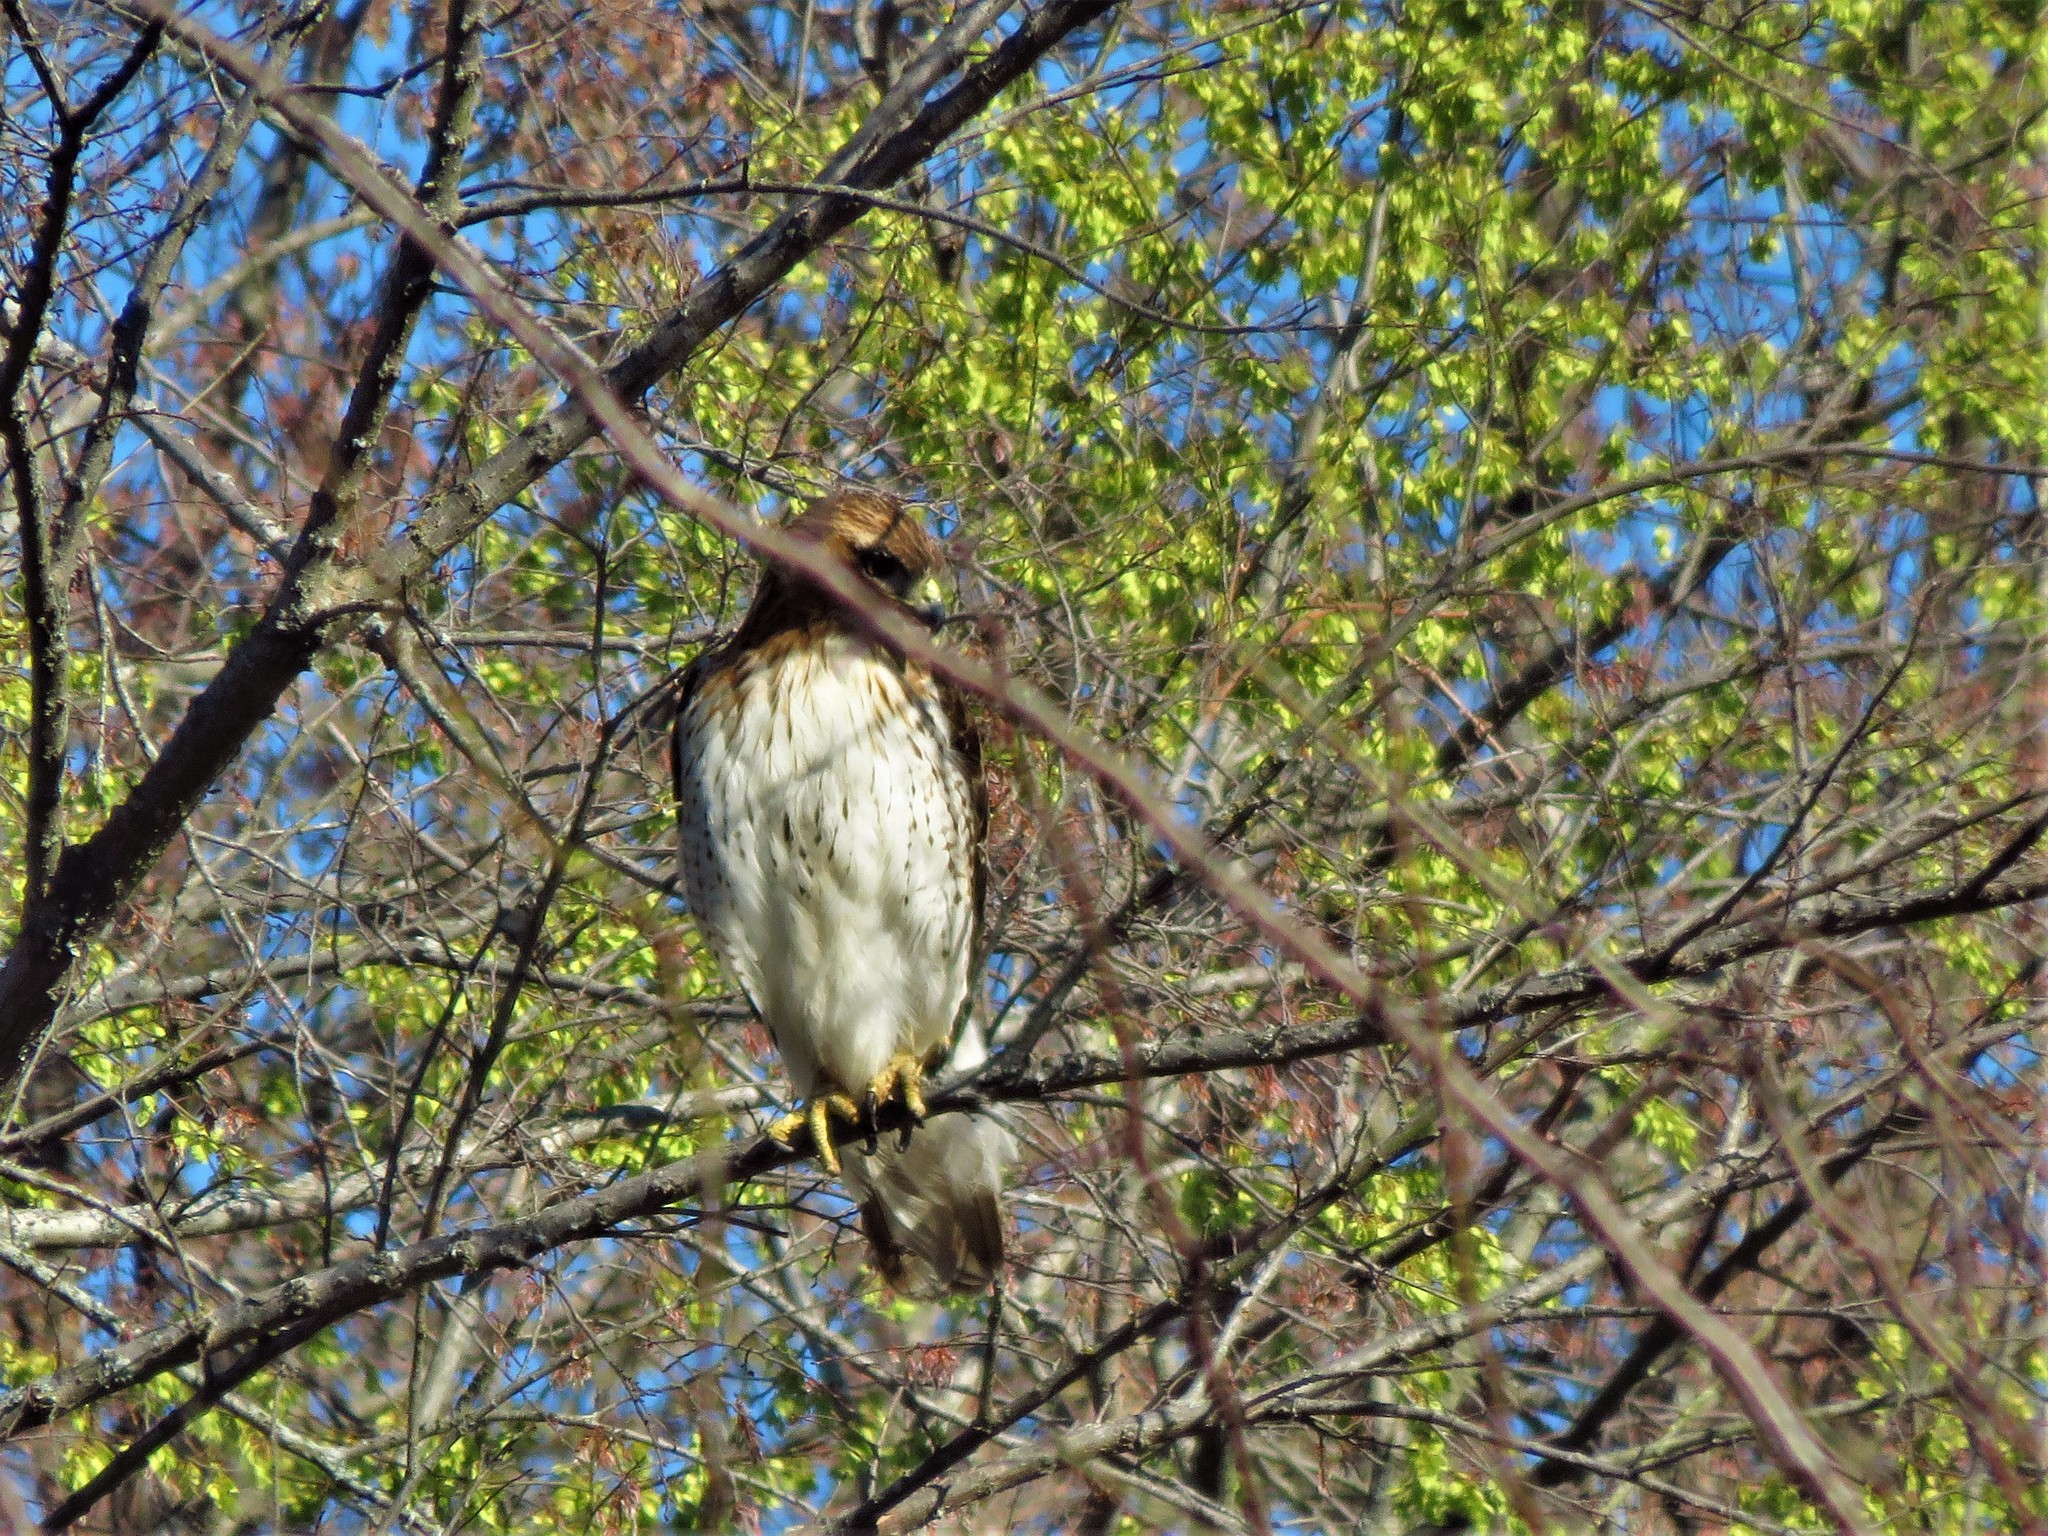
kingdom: Animalia
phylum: Chordata
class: Aves
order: Accipitriformes
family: Accipitridae
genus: Buteo
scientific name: Buteo jamaicensis
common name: Red-tailed hawk
